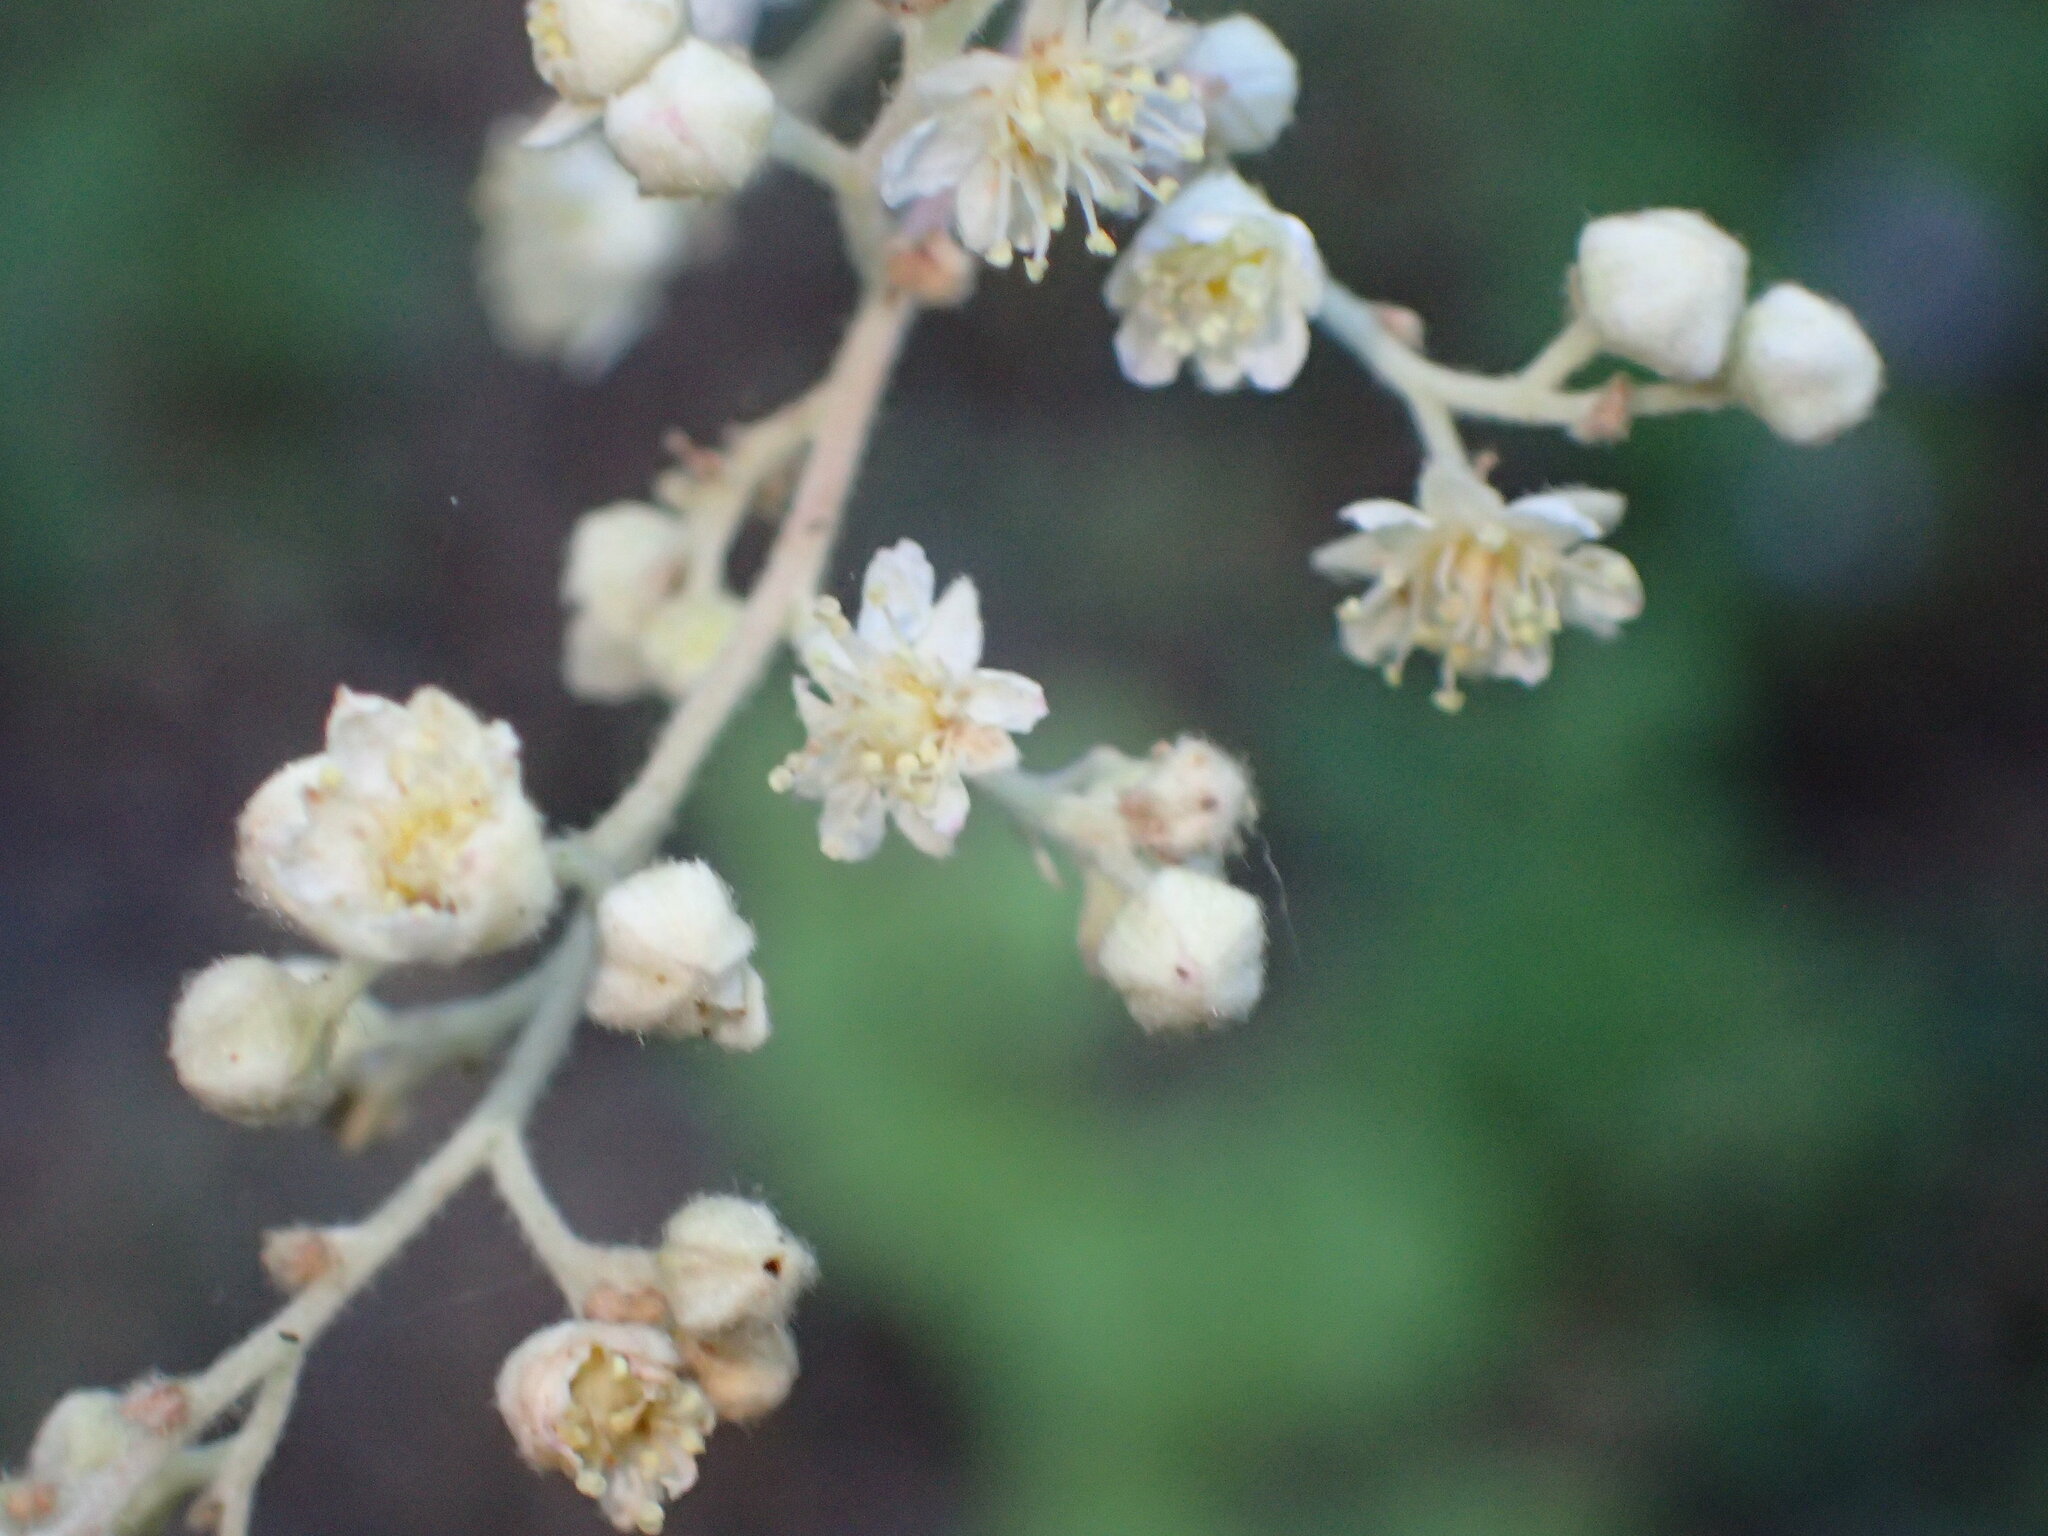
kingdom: Plantae
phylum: Tracheophyta
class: Magnoliopsida
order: Rosales
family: Rosaceae
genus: Holodiscus
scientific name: Holodiscus discolor
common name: Oceanspray
